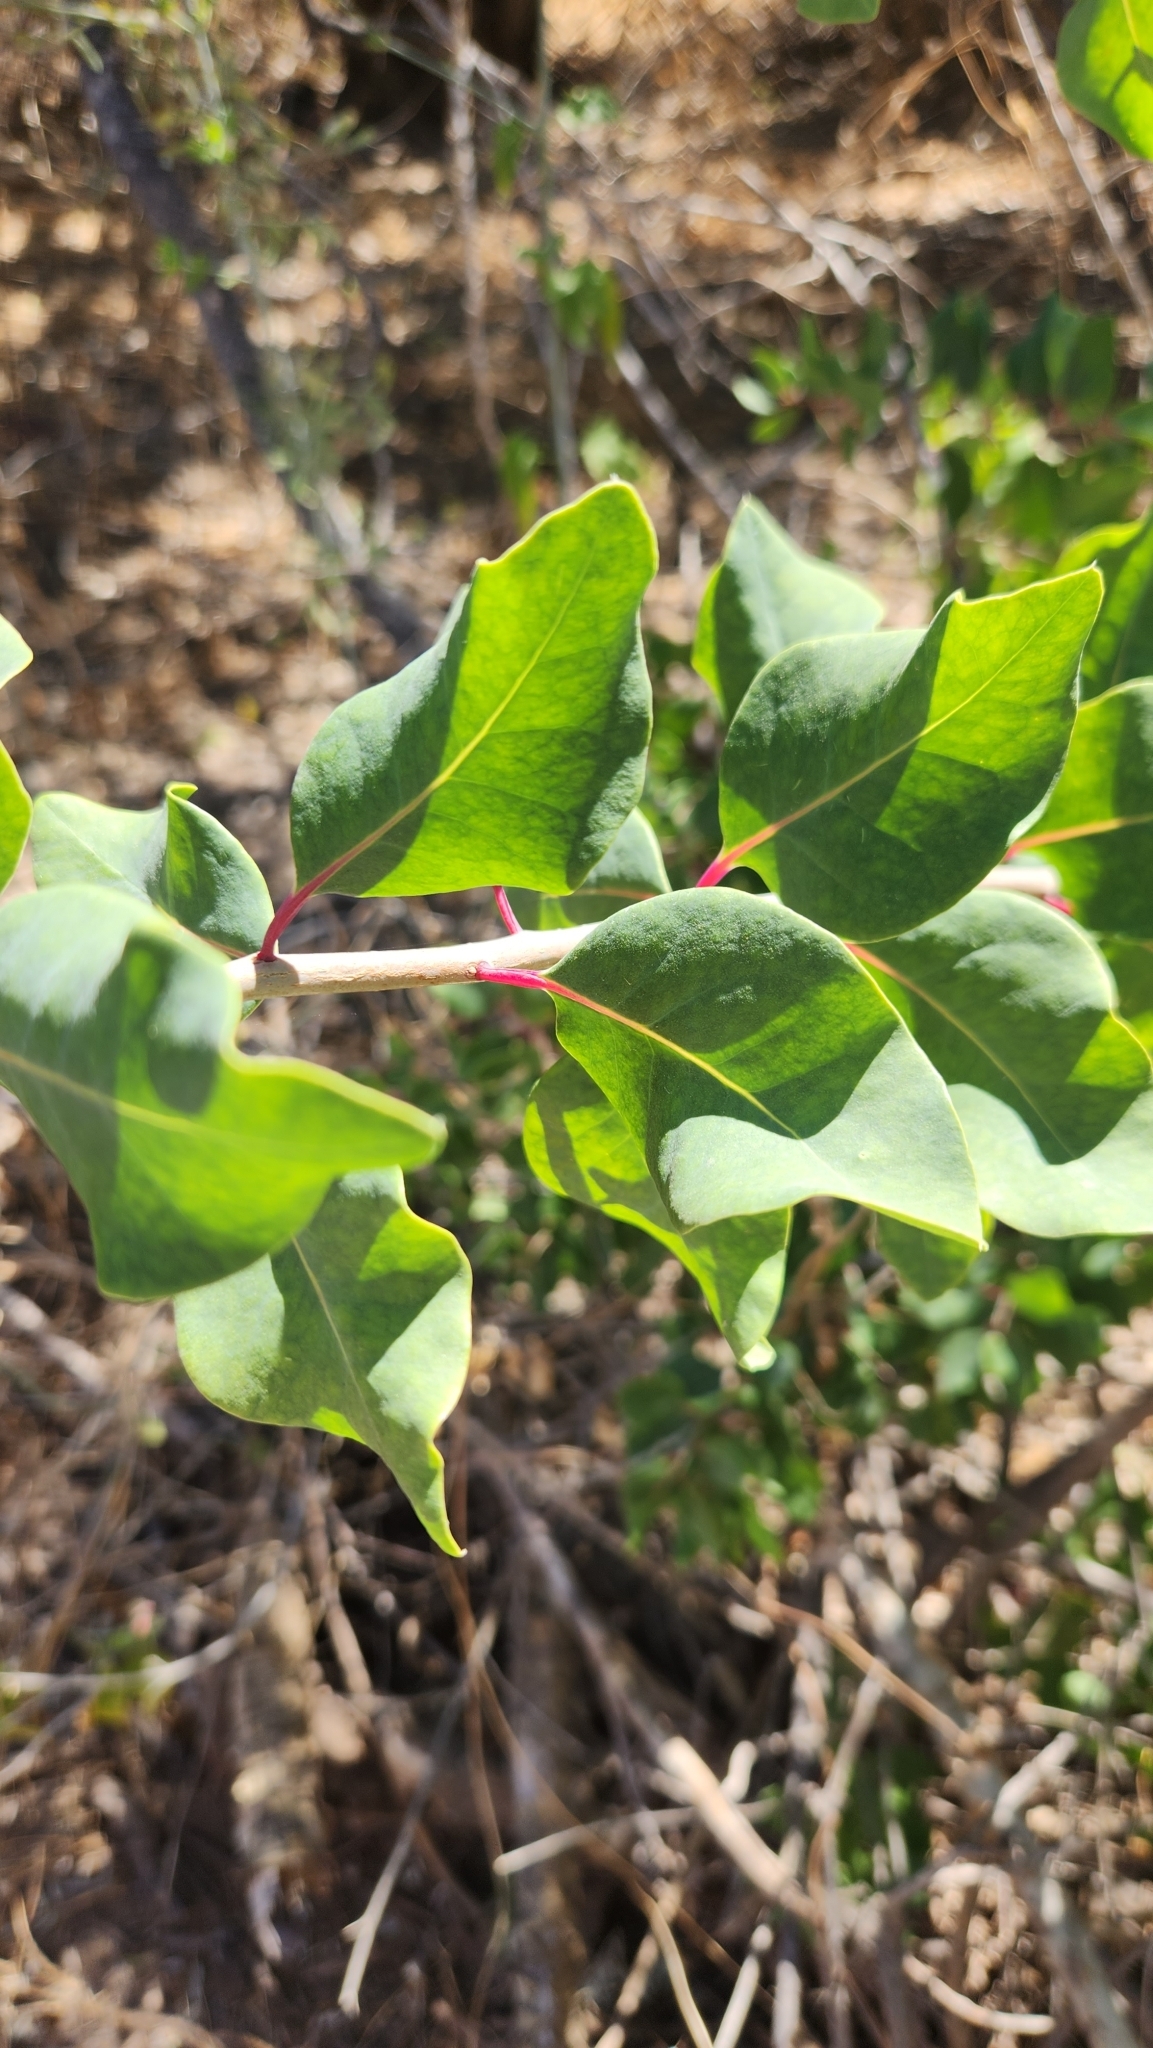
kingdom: Plantae
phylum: Tracheophyta
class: Magnoliopsida
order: Caryophyllales
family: Stegnospermataceae
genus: Stegnosperma
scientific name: Stegnosperma halimifolium
